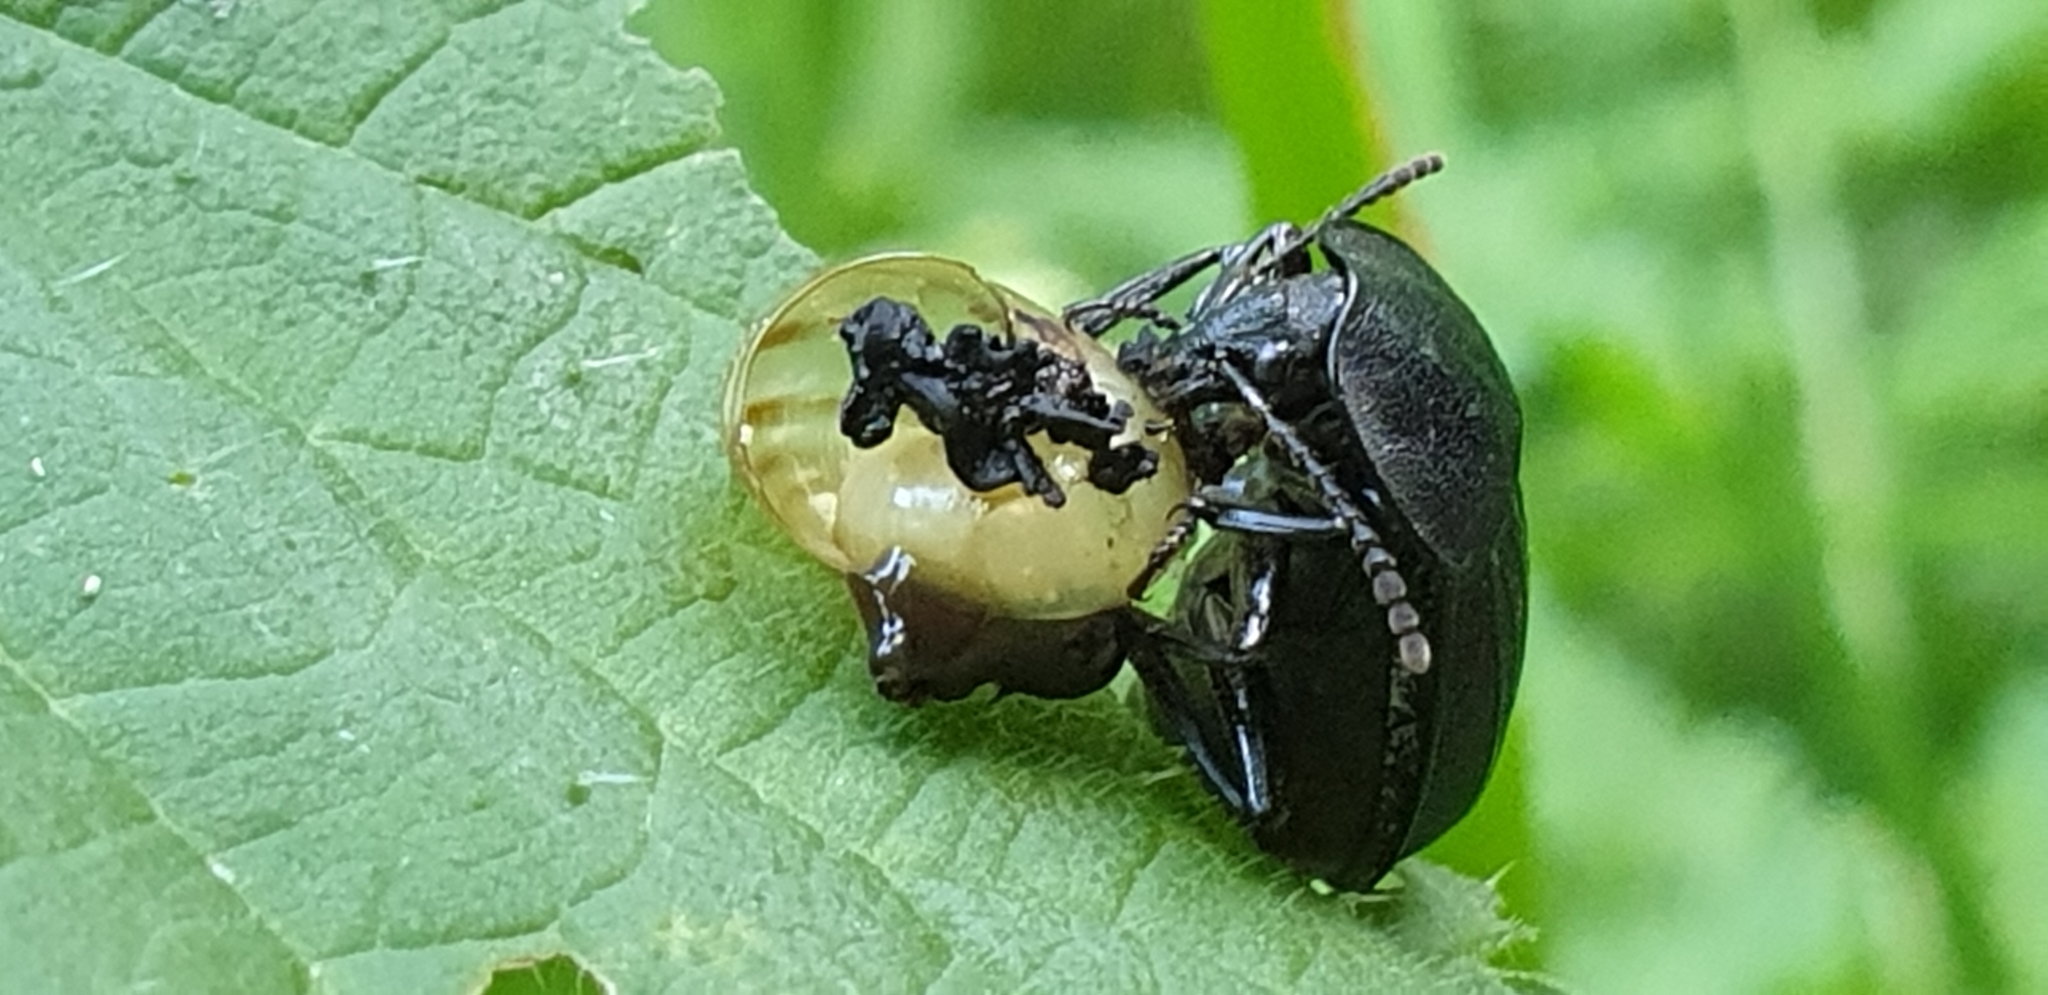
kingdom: Animalia
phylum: Arthropoda
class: Insecta
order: Coleoptera
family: Staphylinidae
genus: Silpha
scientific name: Silpha atrata
